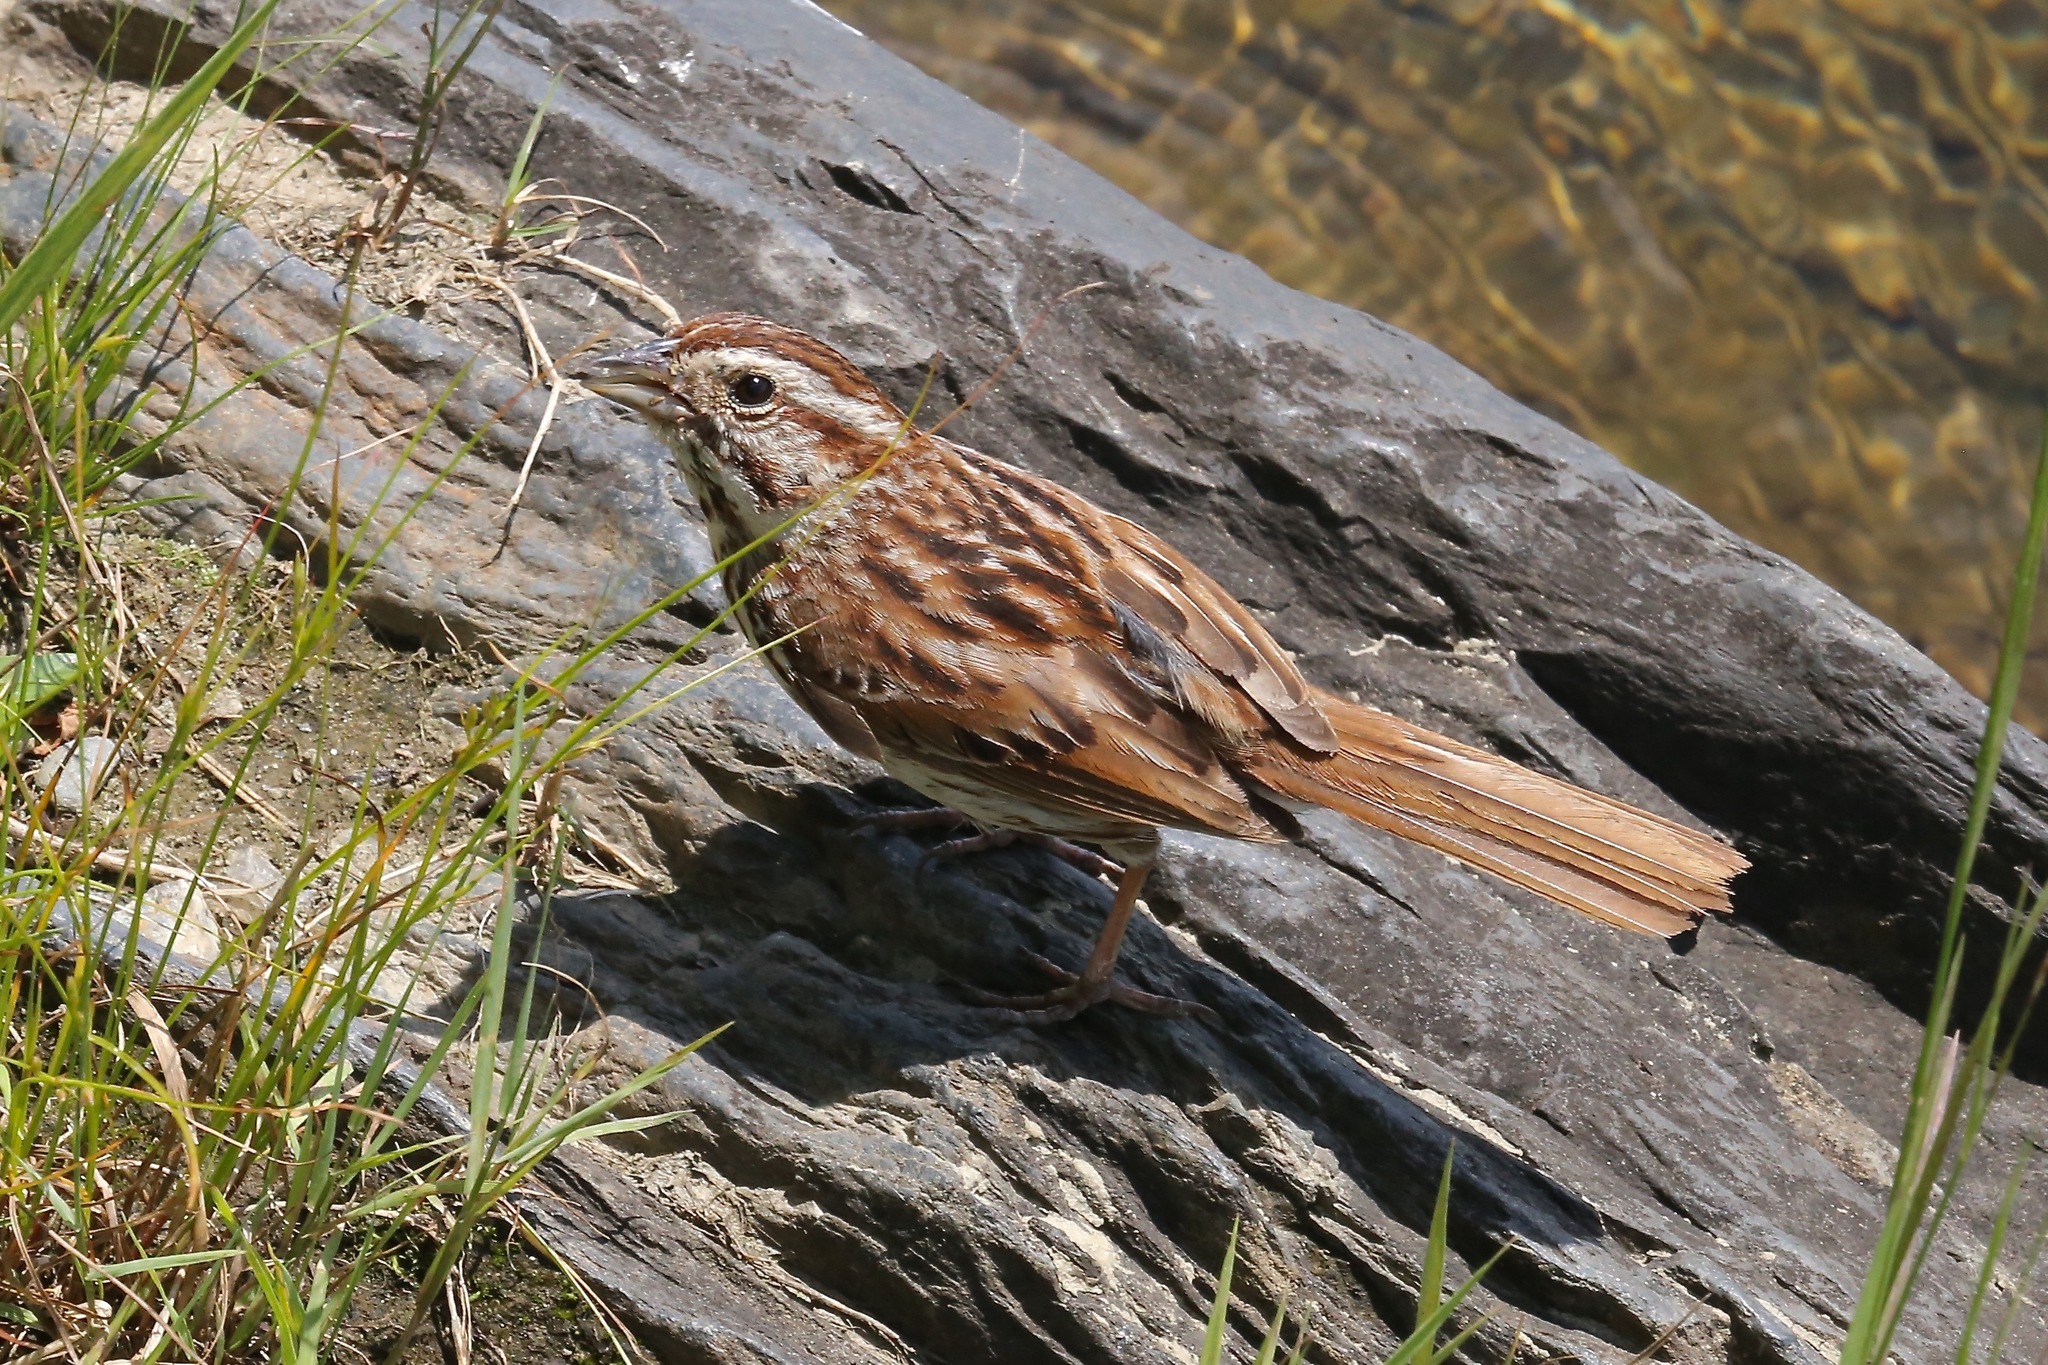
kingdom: Animalia
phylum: Chordata
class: Aves
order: Passeriformes
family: Passerellidae
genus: Melospiza
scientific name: Melospiza melodia
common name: Song sparrow
